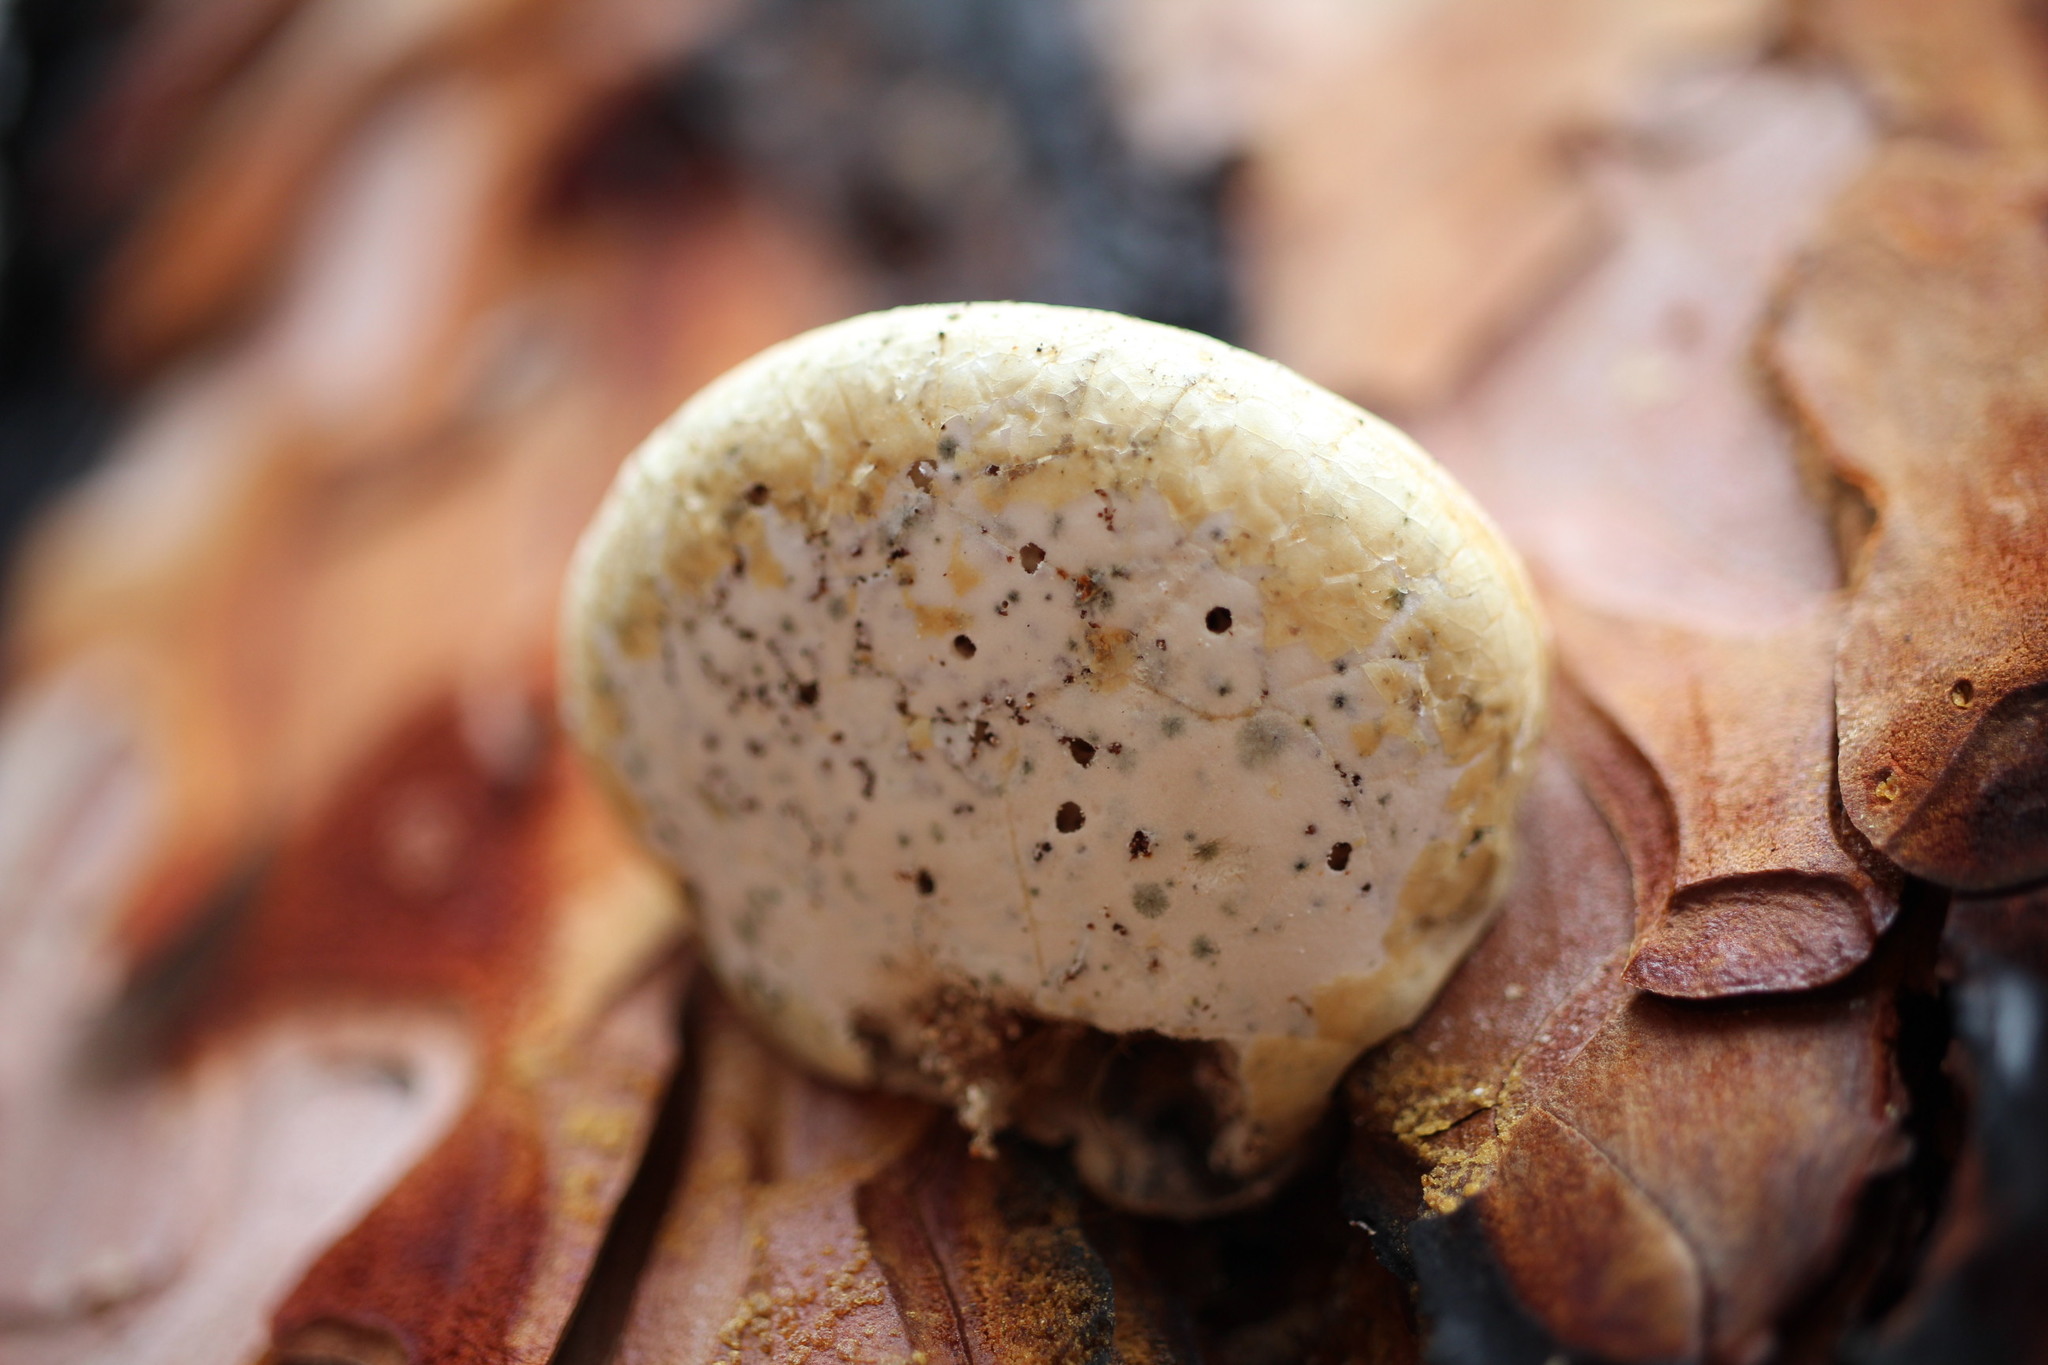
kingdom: Fungi
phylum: Basidiomycota
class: Agaricomycetes
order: Polyporales
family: Polyporaceae
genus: Cryptoporus
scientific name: Cryptoporus volvatus
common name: Veiled polypore
